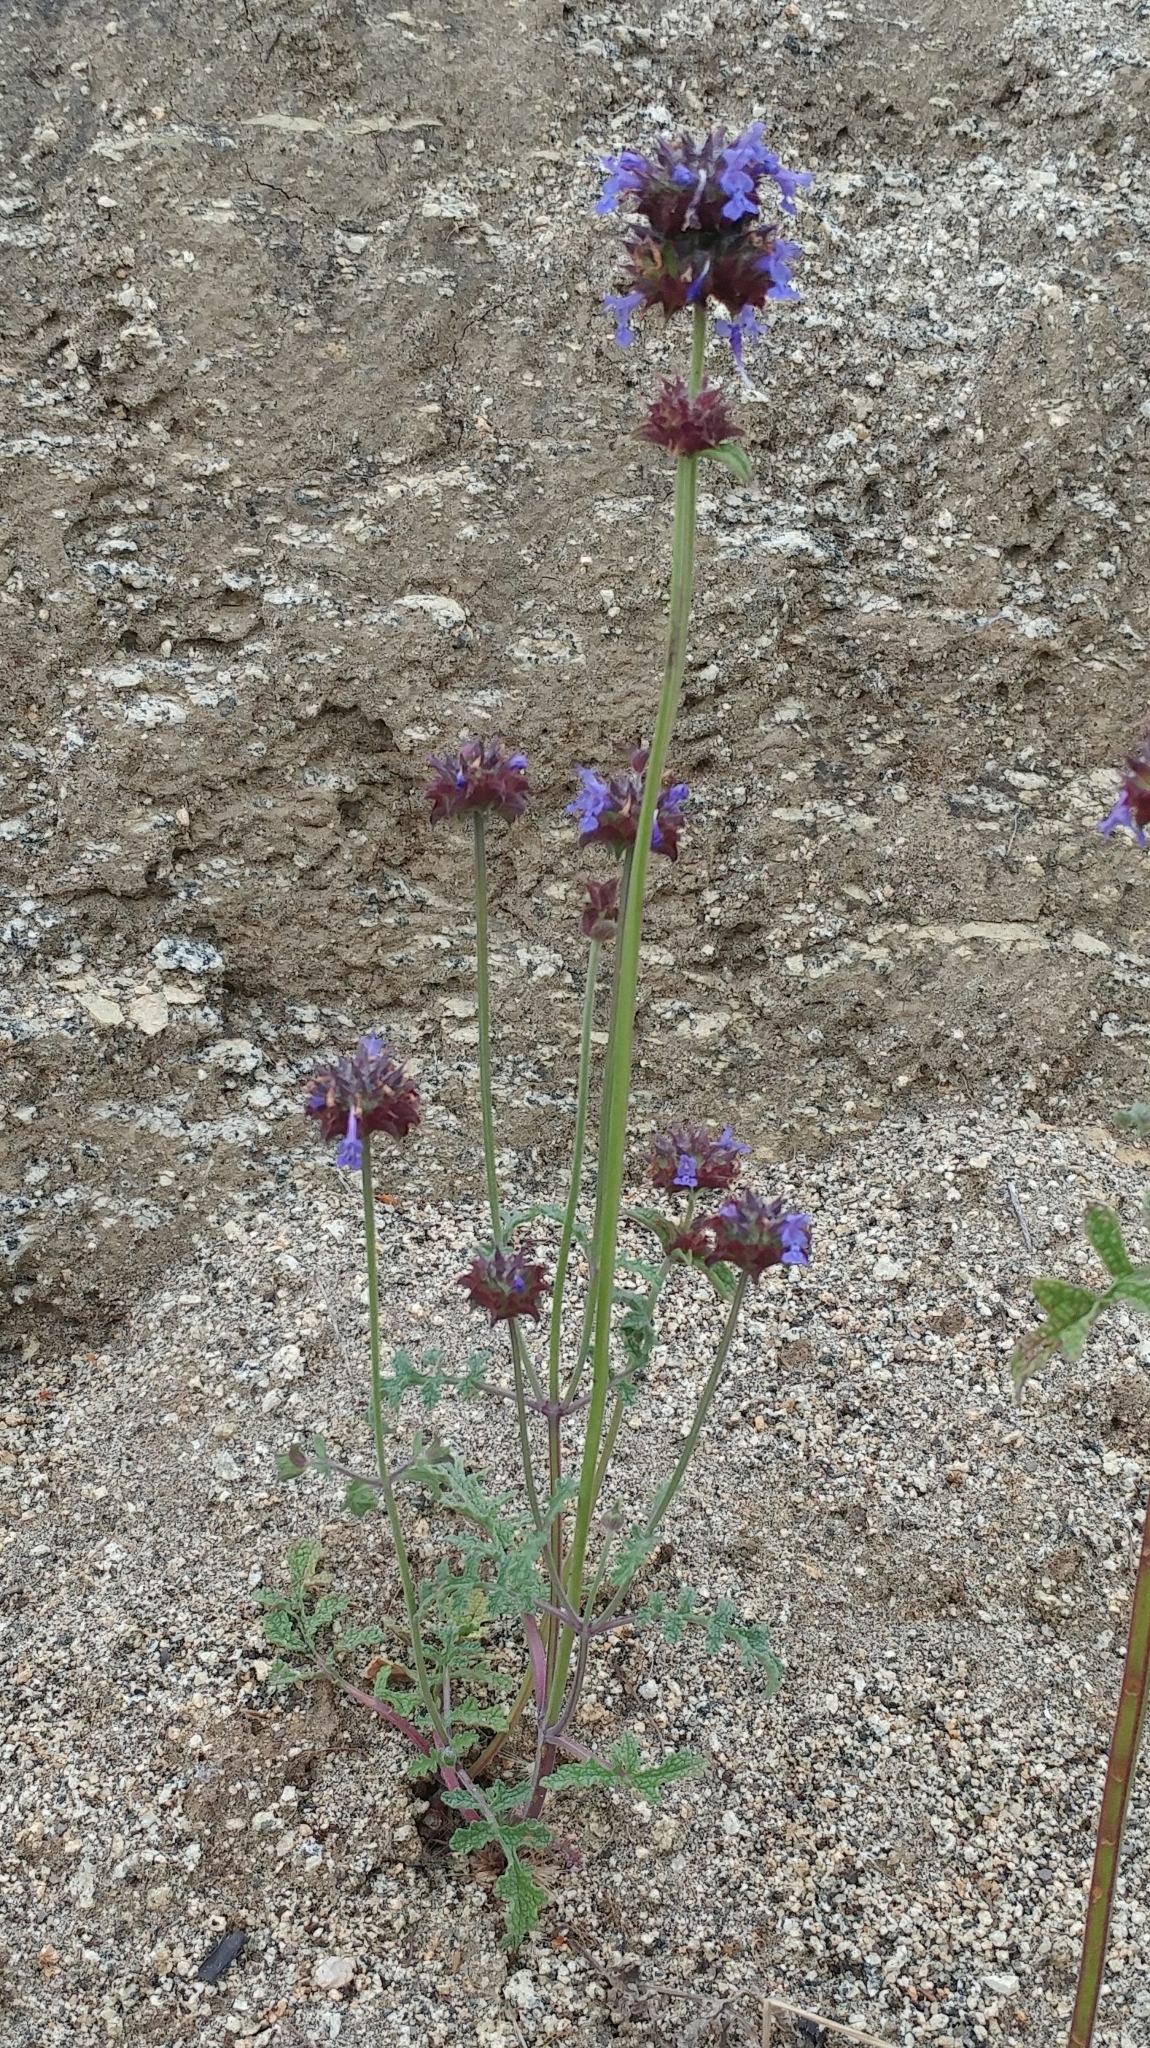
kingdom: Plantae
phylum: Tracheophyta
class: Magnoliopsida
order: Lamiales
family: Lamiaceae
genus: Salvia
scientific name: Salvia columbariae
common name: Chia
